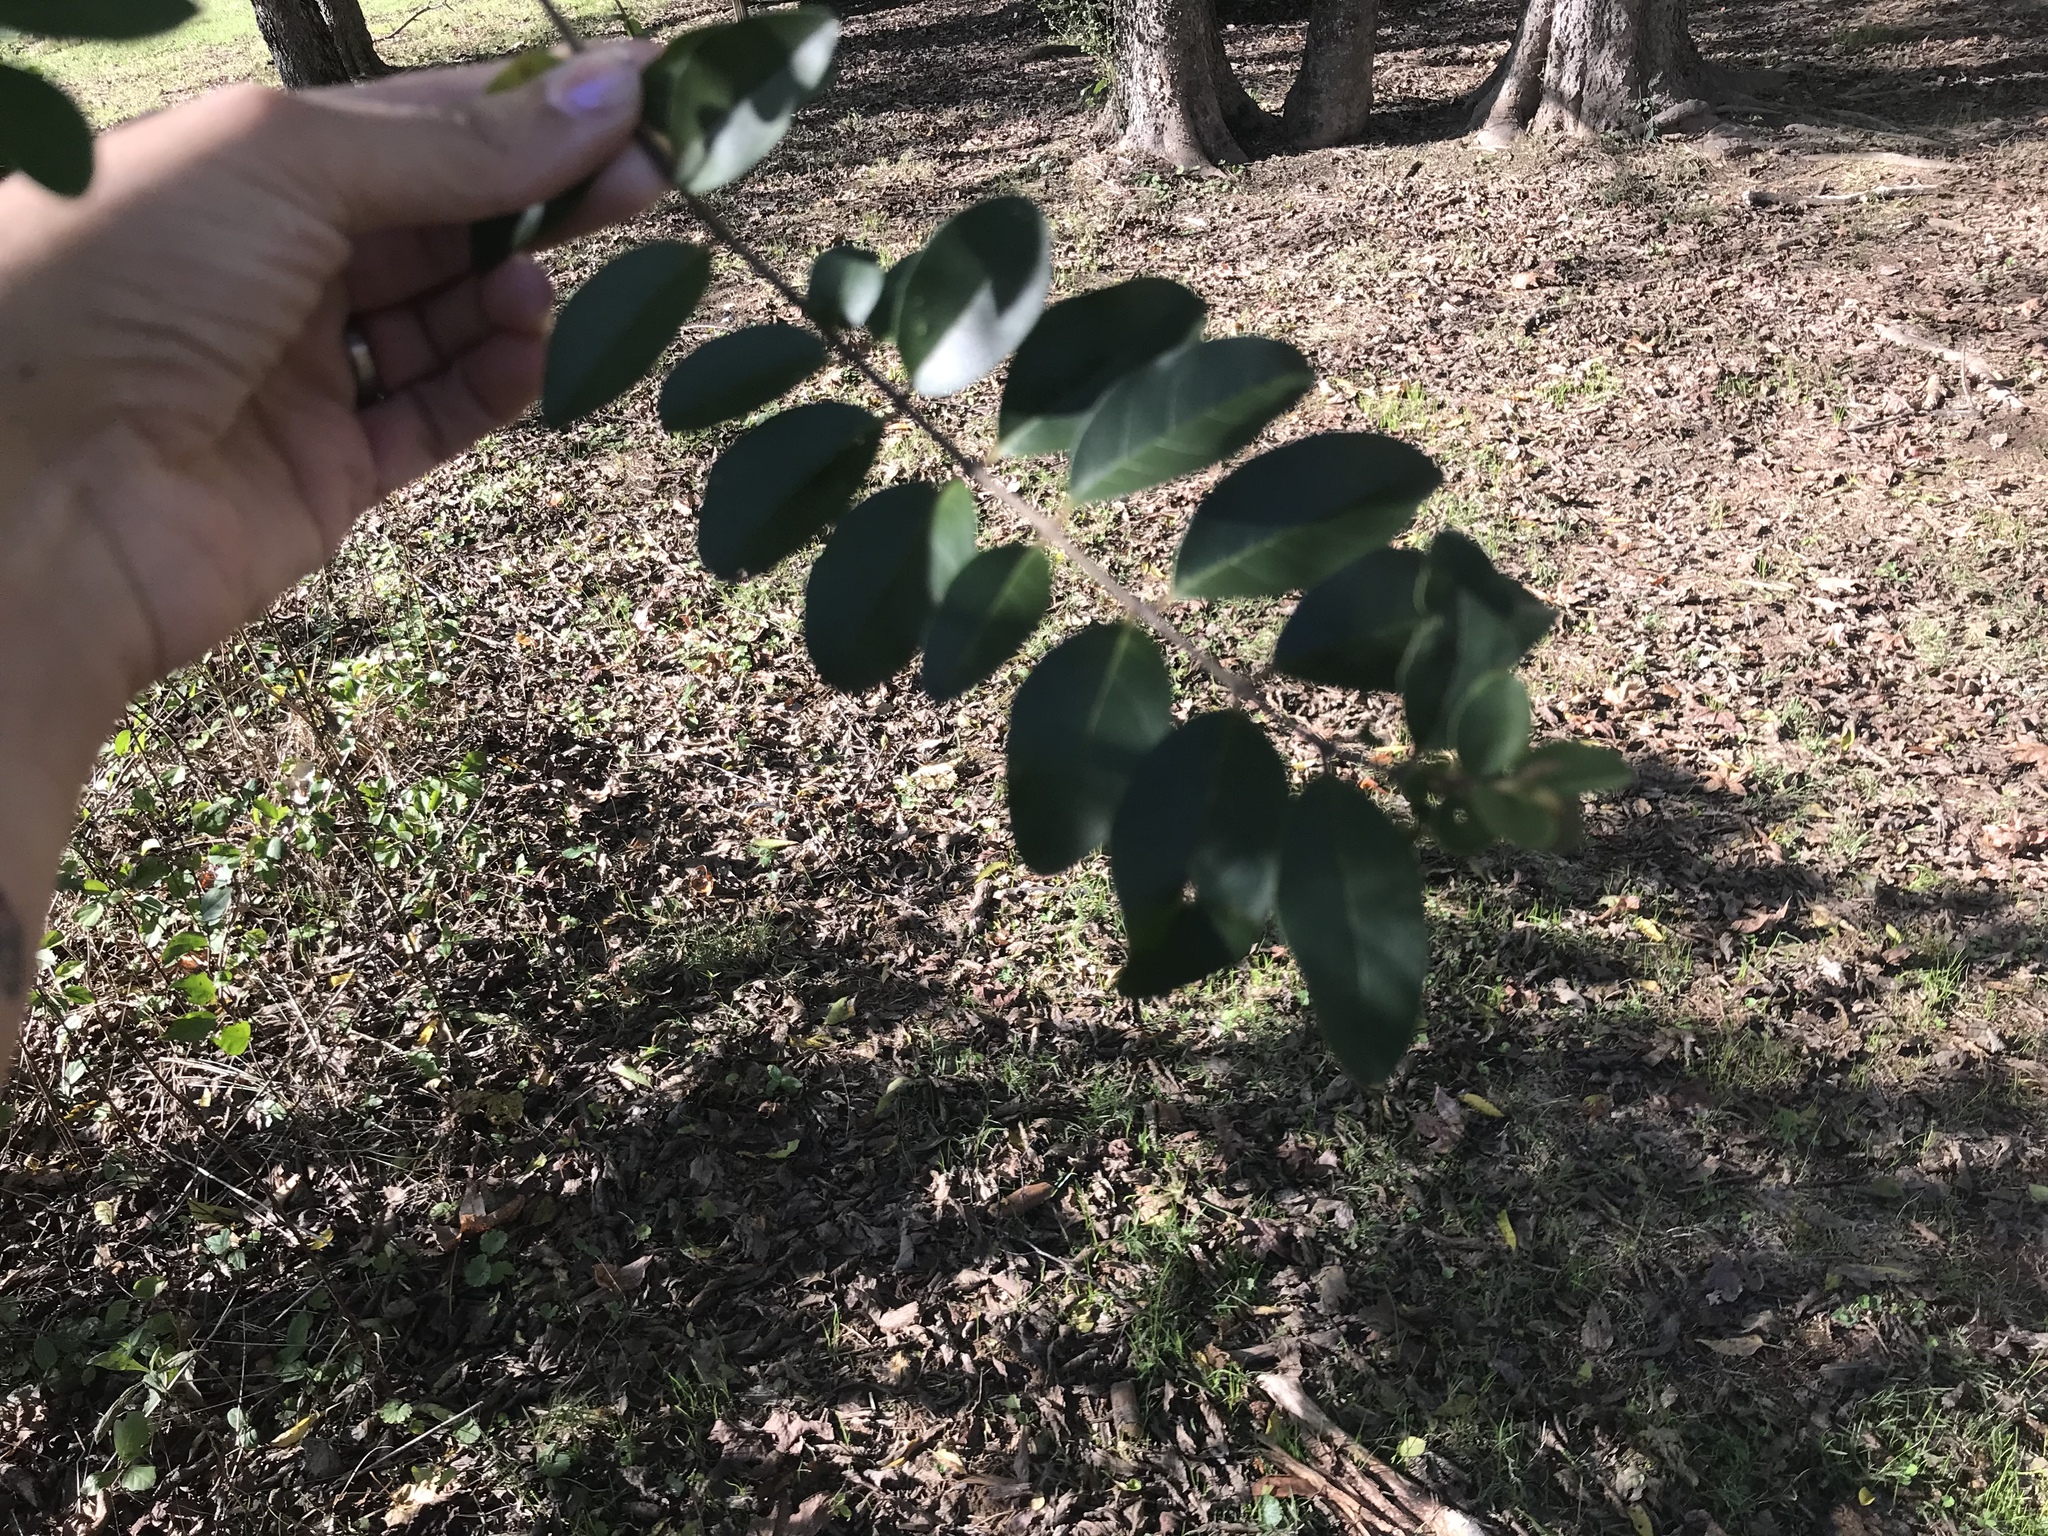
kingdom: Plantae
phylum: Tracheophyta
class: Magnoliopsida
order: Lamiales
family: Oleaceae
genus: Ligustrum
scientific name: Ligustrum sinense
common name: Chinese privet
